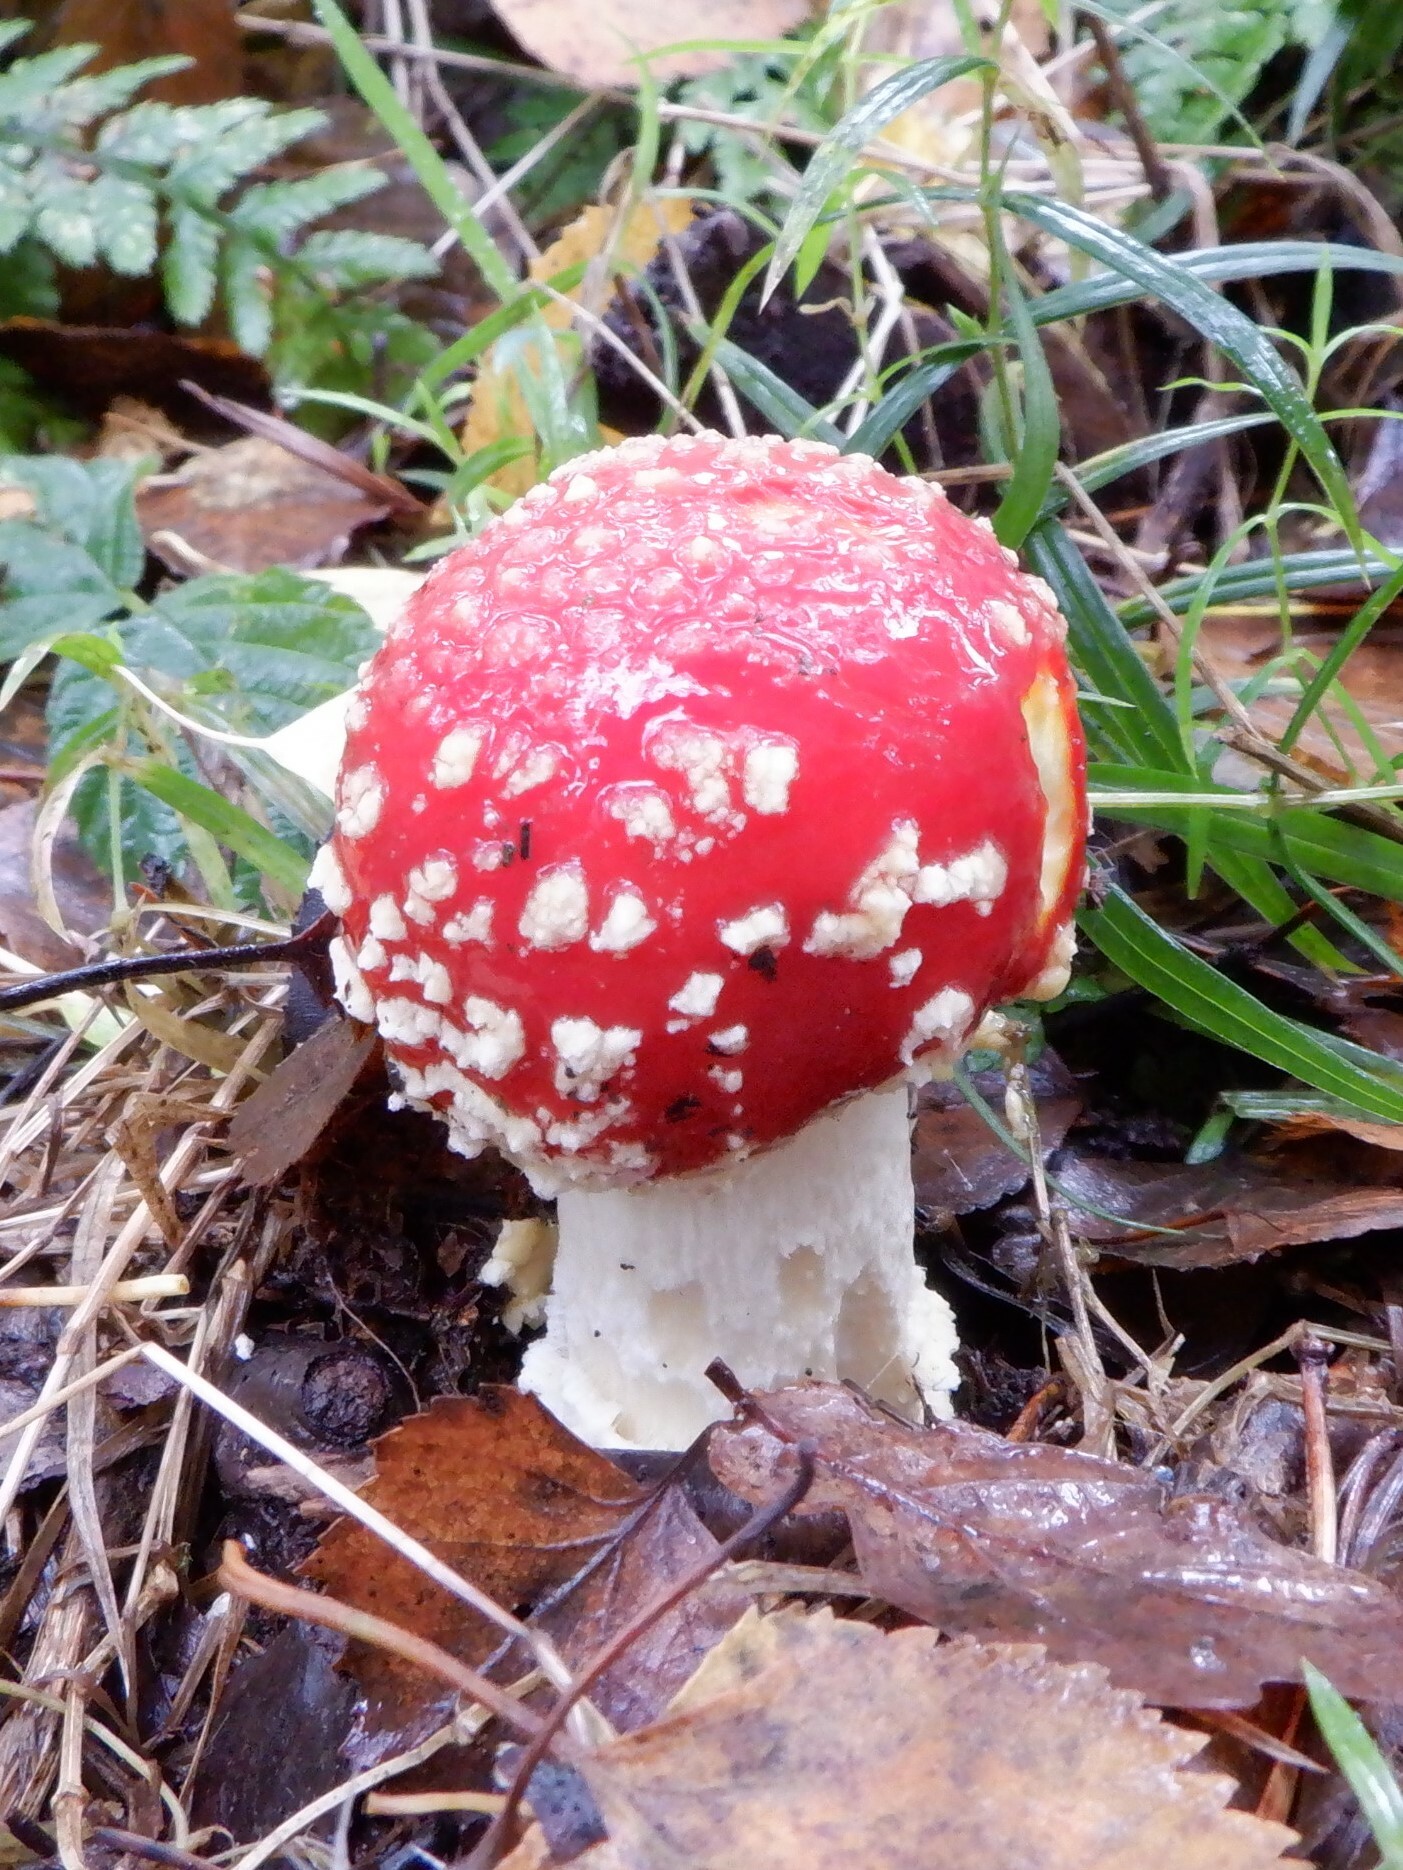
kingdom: Fungi
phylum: Basidiomycota
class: Agaricomycetes
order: Agaricales
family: Amanitaceae
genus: Amanita
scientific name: Amanita muscaria
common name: Fly agaric
